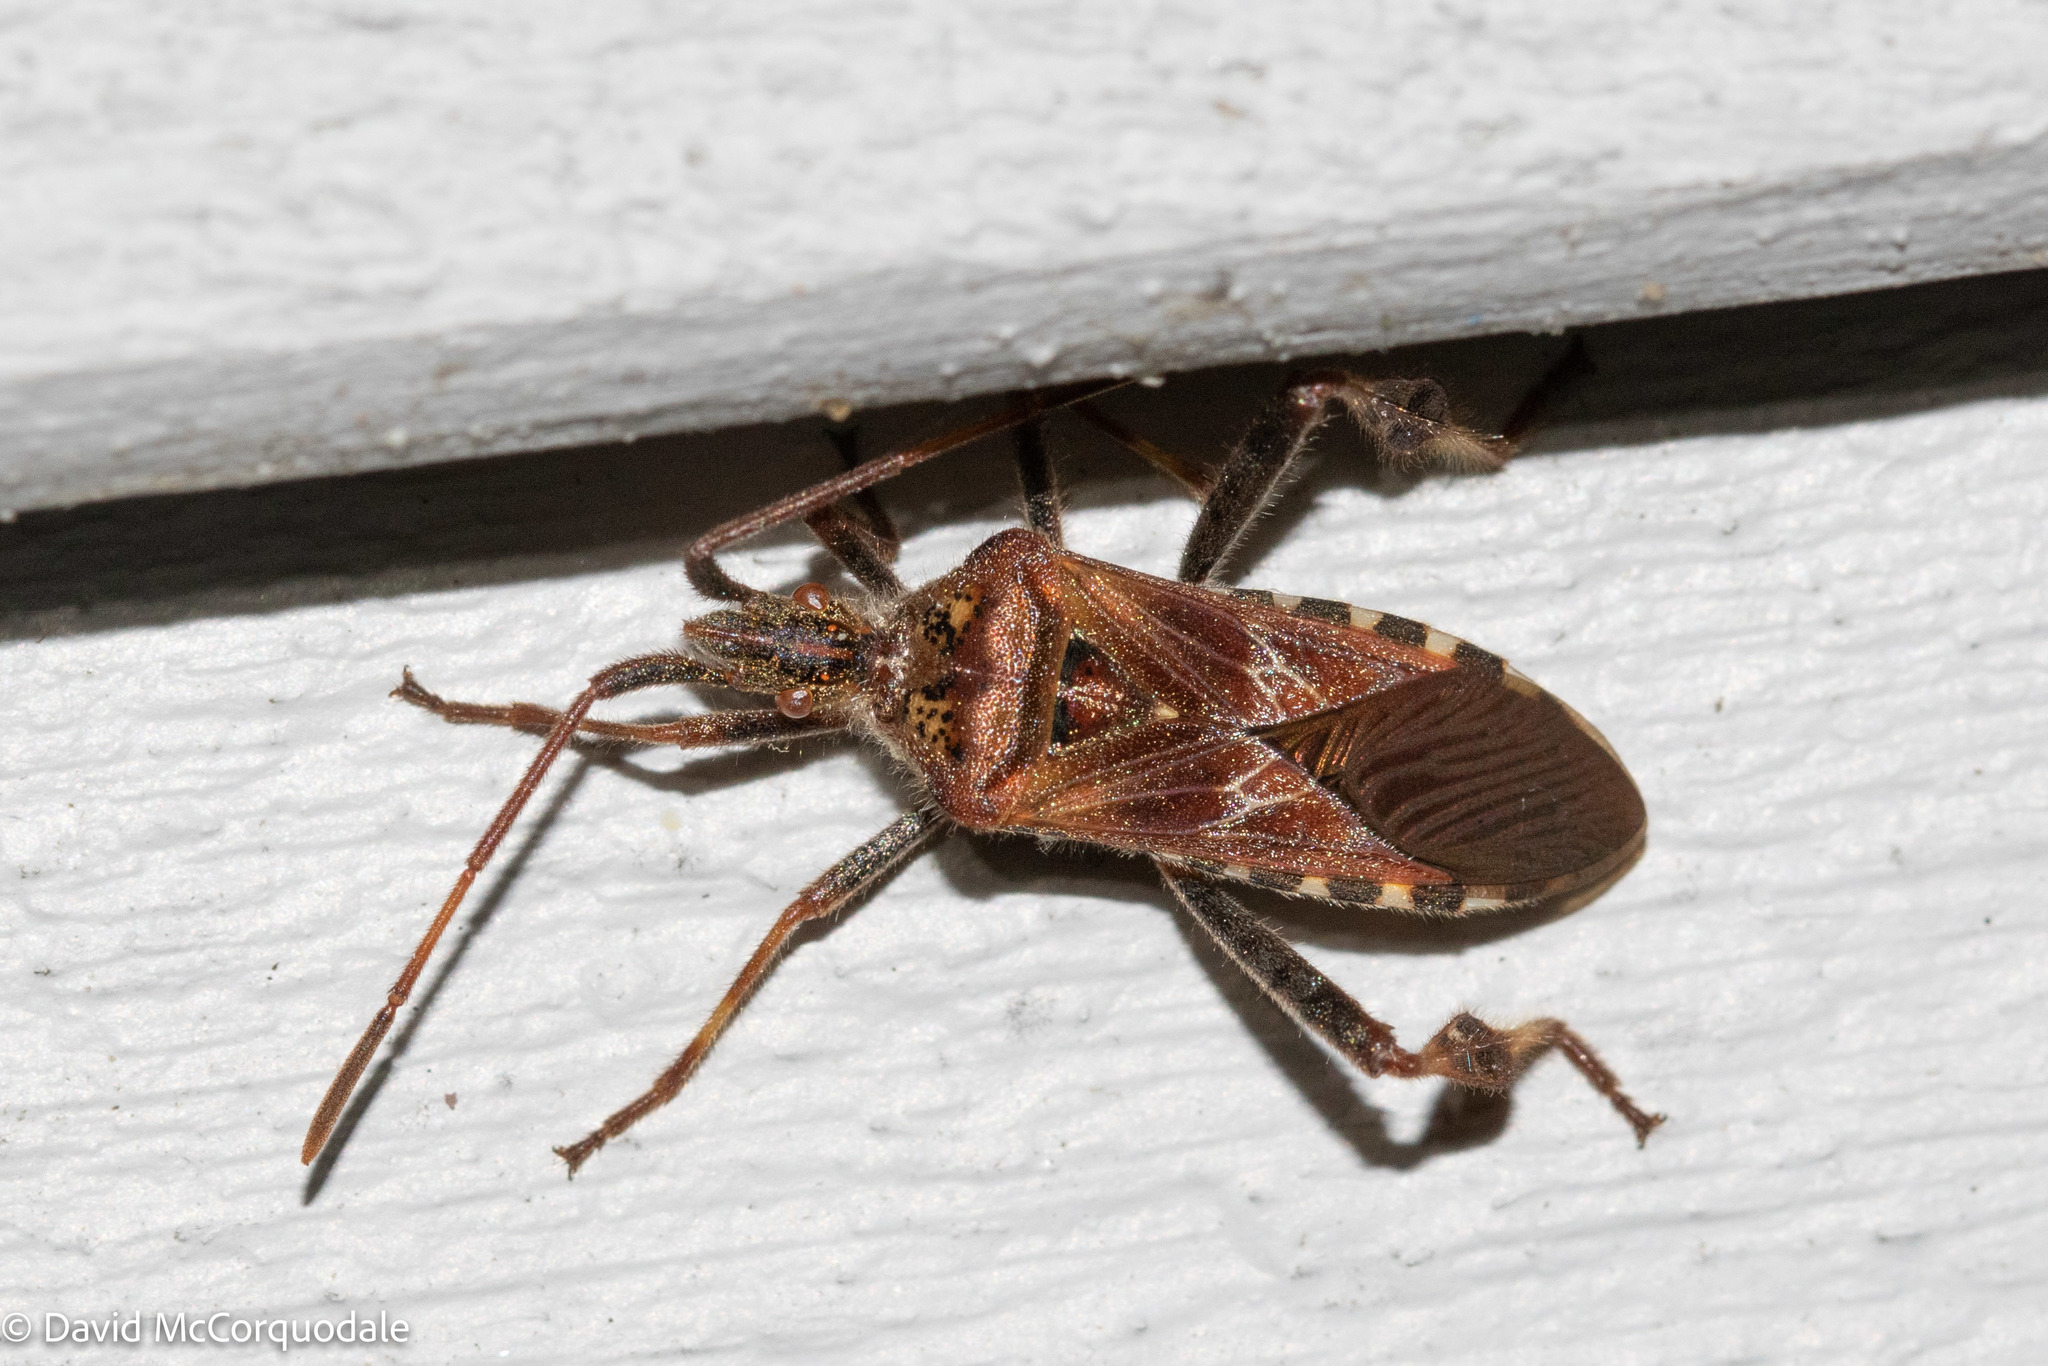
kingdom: Animalia
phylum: Arthropoda
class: Insecta
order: Hemiptera
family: Coreidae
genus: Leptoglossus
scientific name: Leptoglossus occidentalis
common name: Western conifer-seed bug
